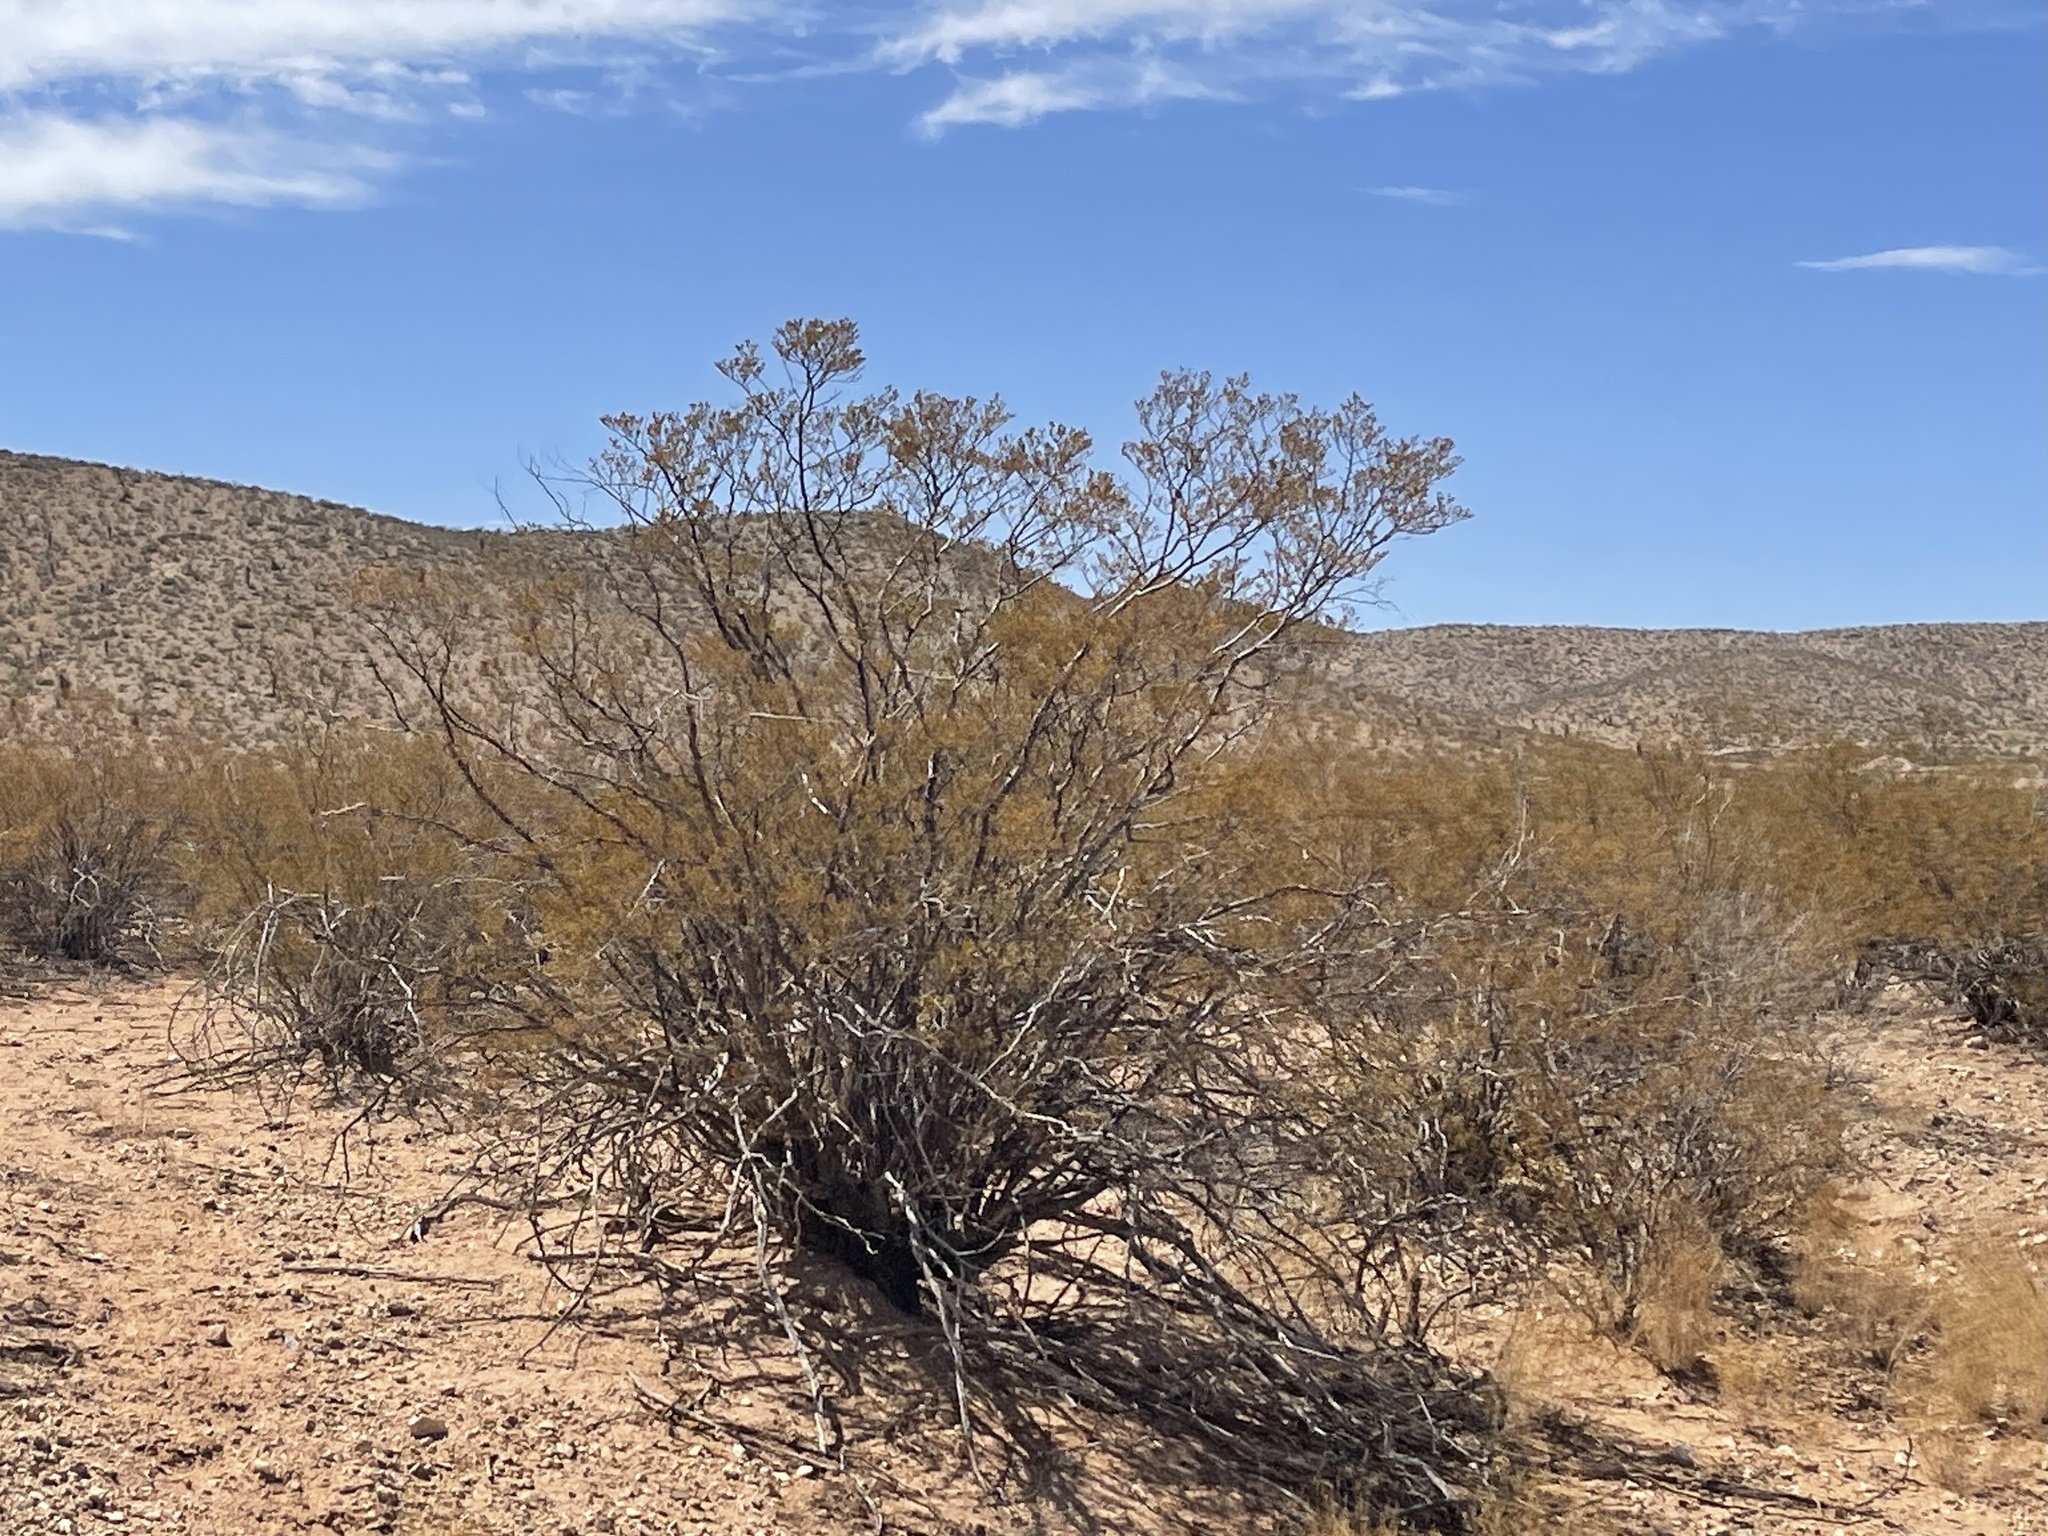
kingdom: Plantae
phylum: Tracheophyta
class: Magnoliopsida
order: Zygophyllales
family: Zygophyllaceae
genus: Larrea
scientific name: Larrea tridentata
